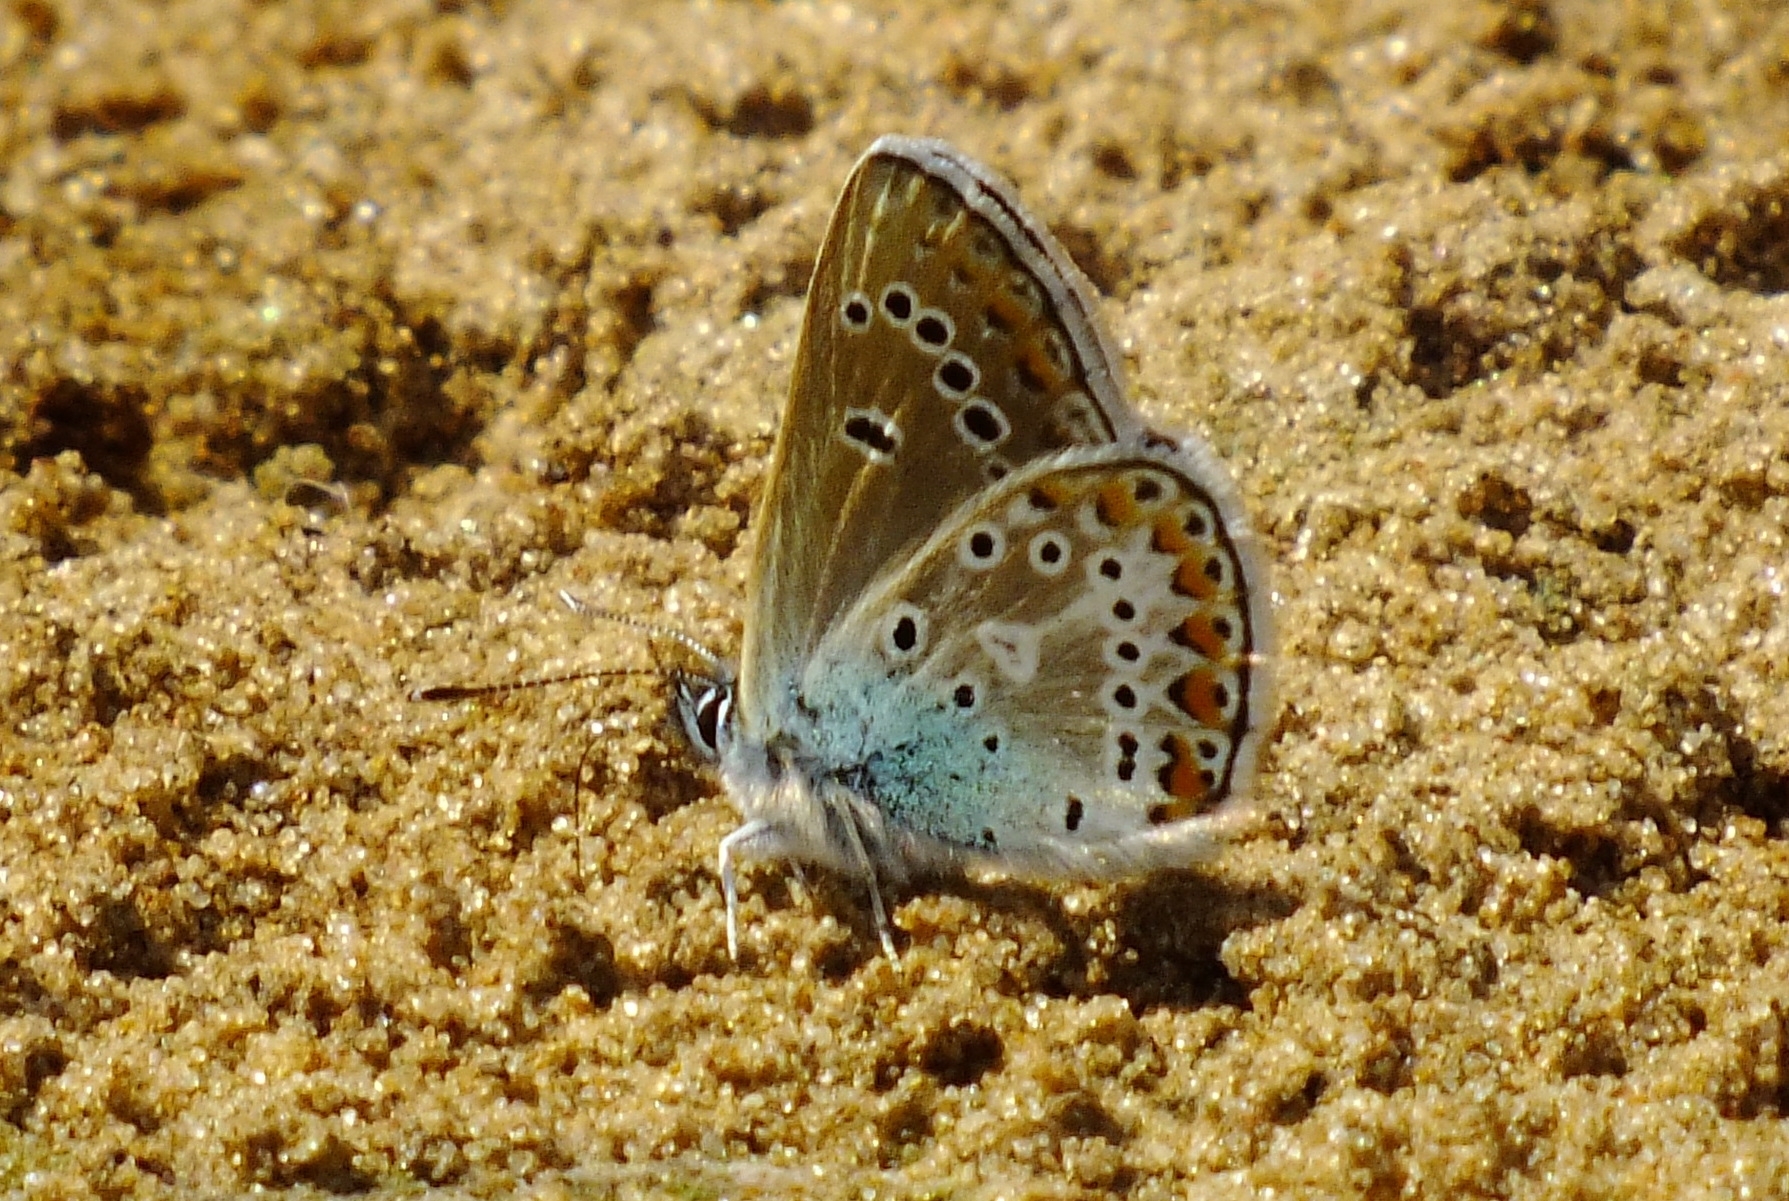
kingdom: Animalia
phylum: Arthropoda
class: Insecta
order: Lepidoptera
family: Lycaenidae
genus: Eumedonia
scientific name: Eumedonia eumedon
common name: Geranium argus
